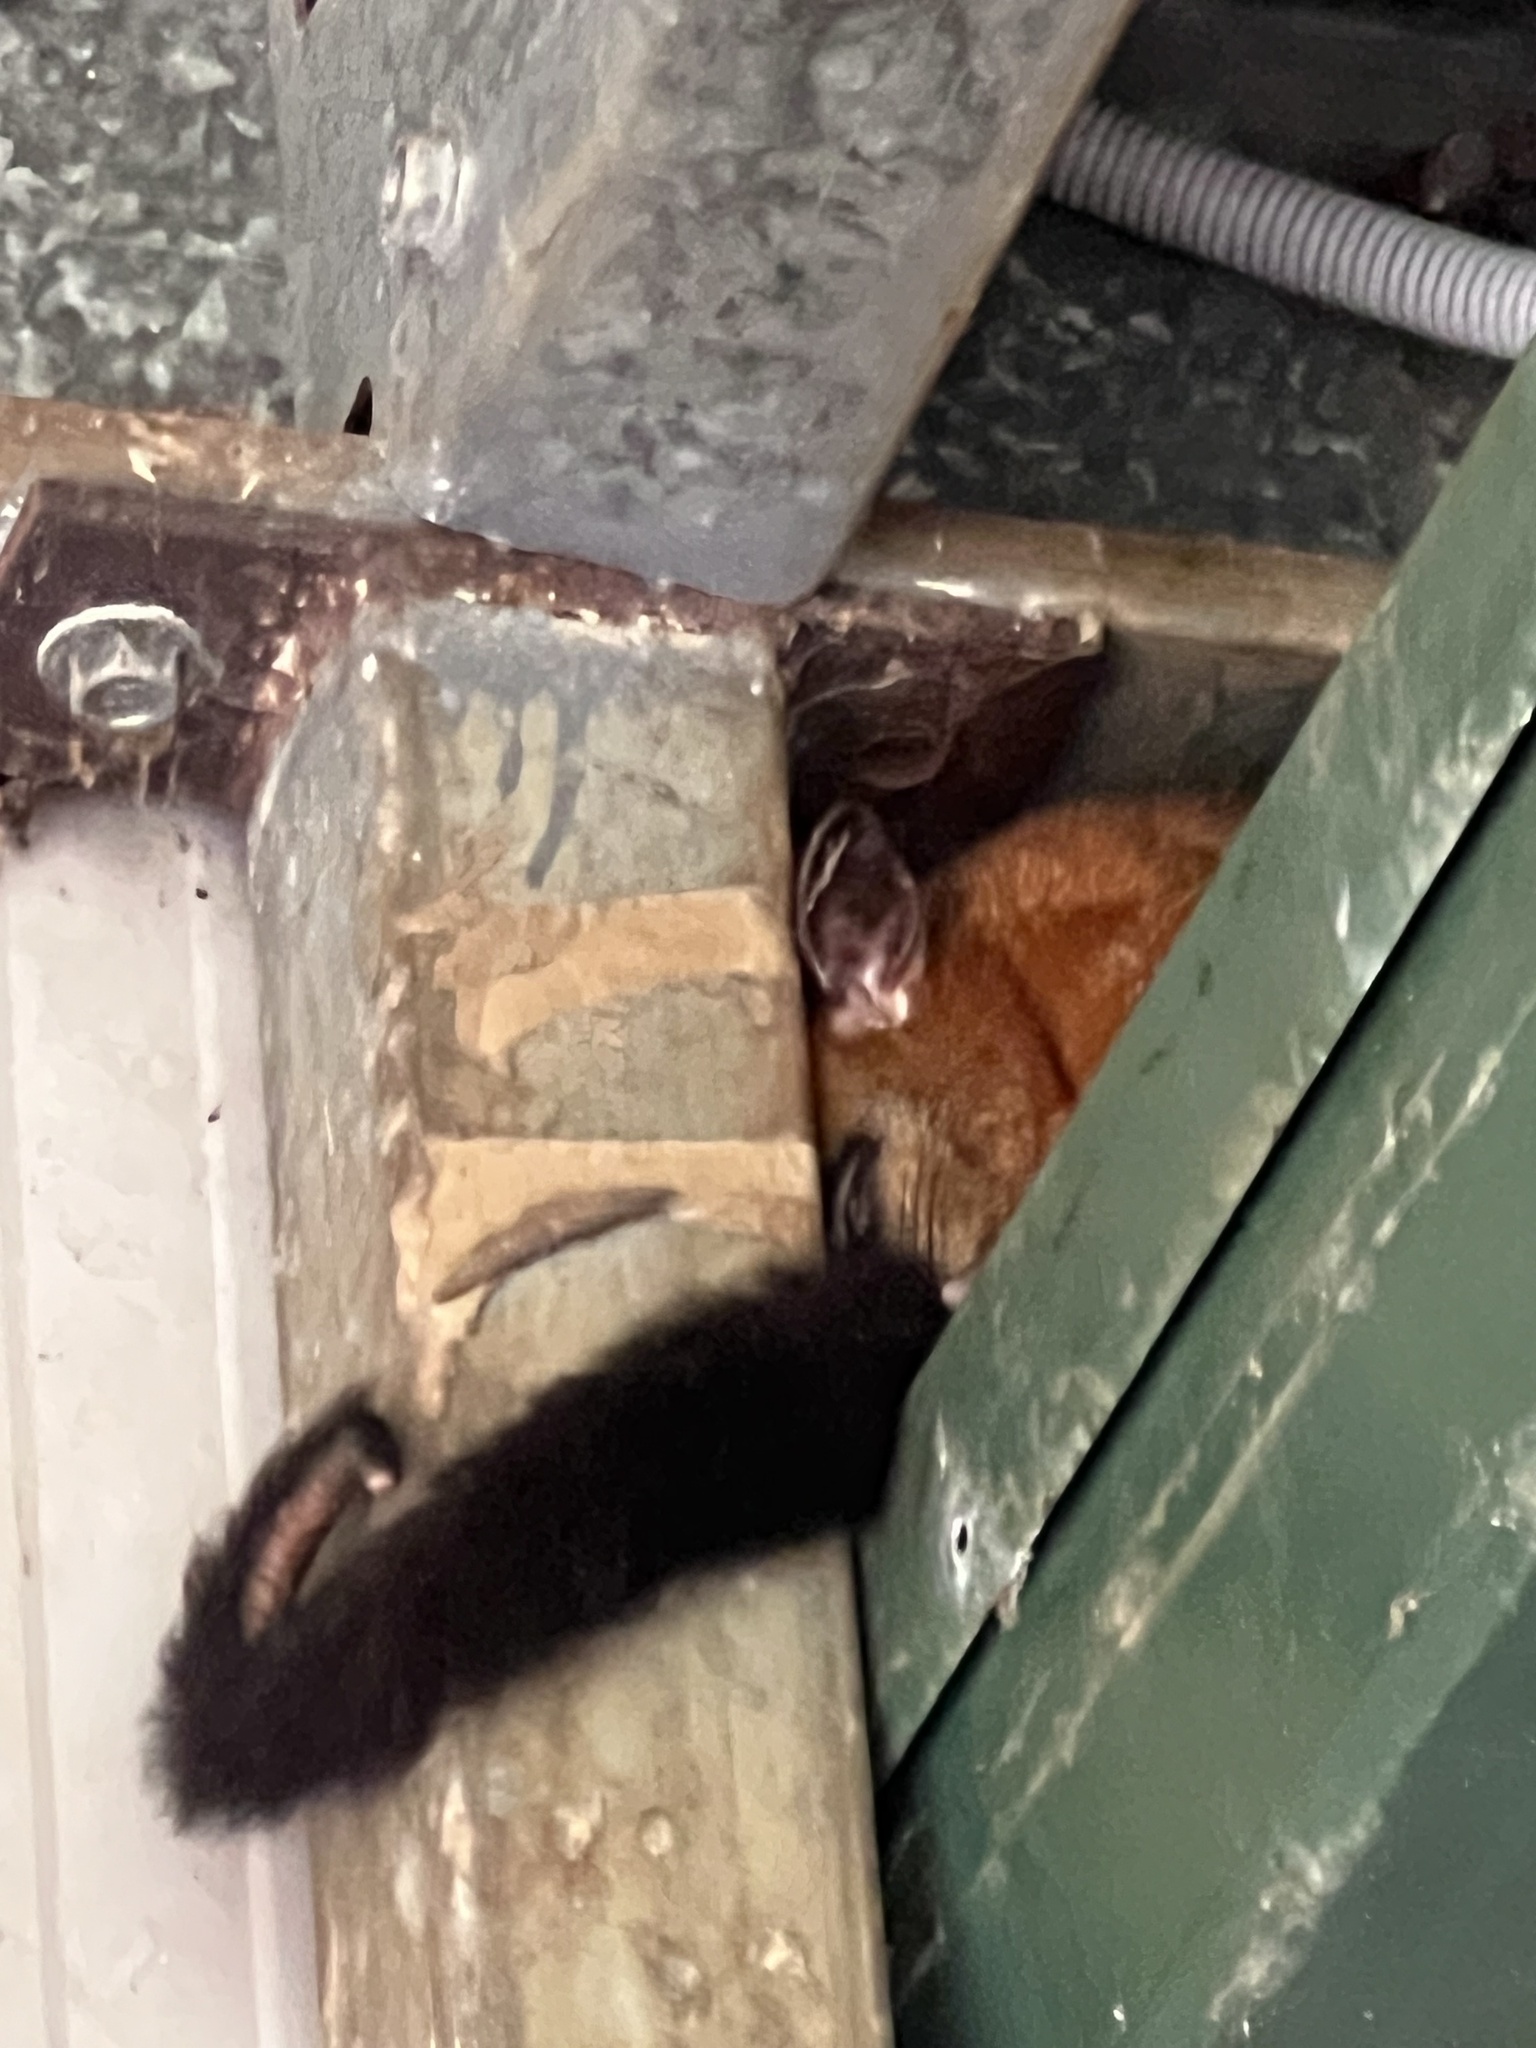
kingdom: Animalia
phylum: Chordata
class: Mammalia
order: Diprotodontia
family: Phalangeridae
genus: Trichosurus
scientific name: Trichosurus johnstonii
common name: Coppery brushtail
